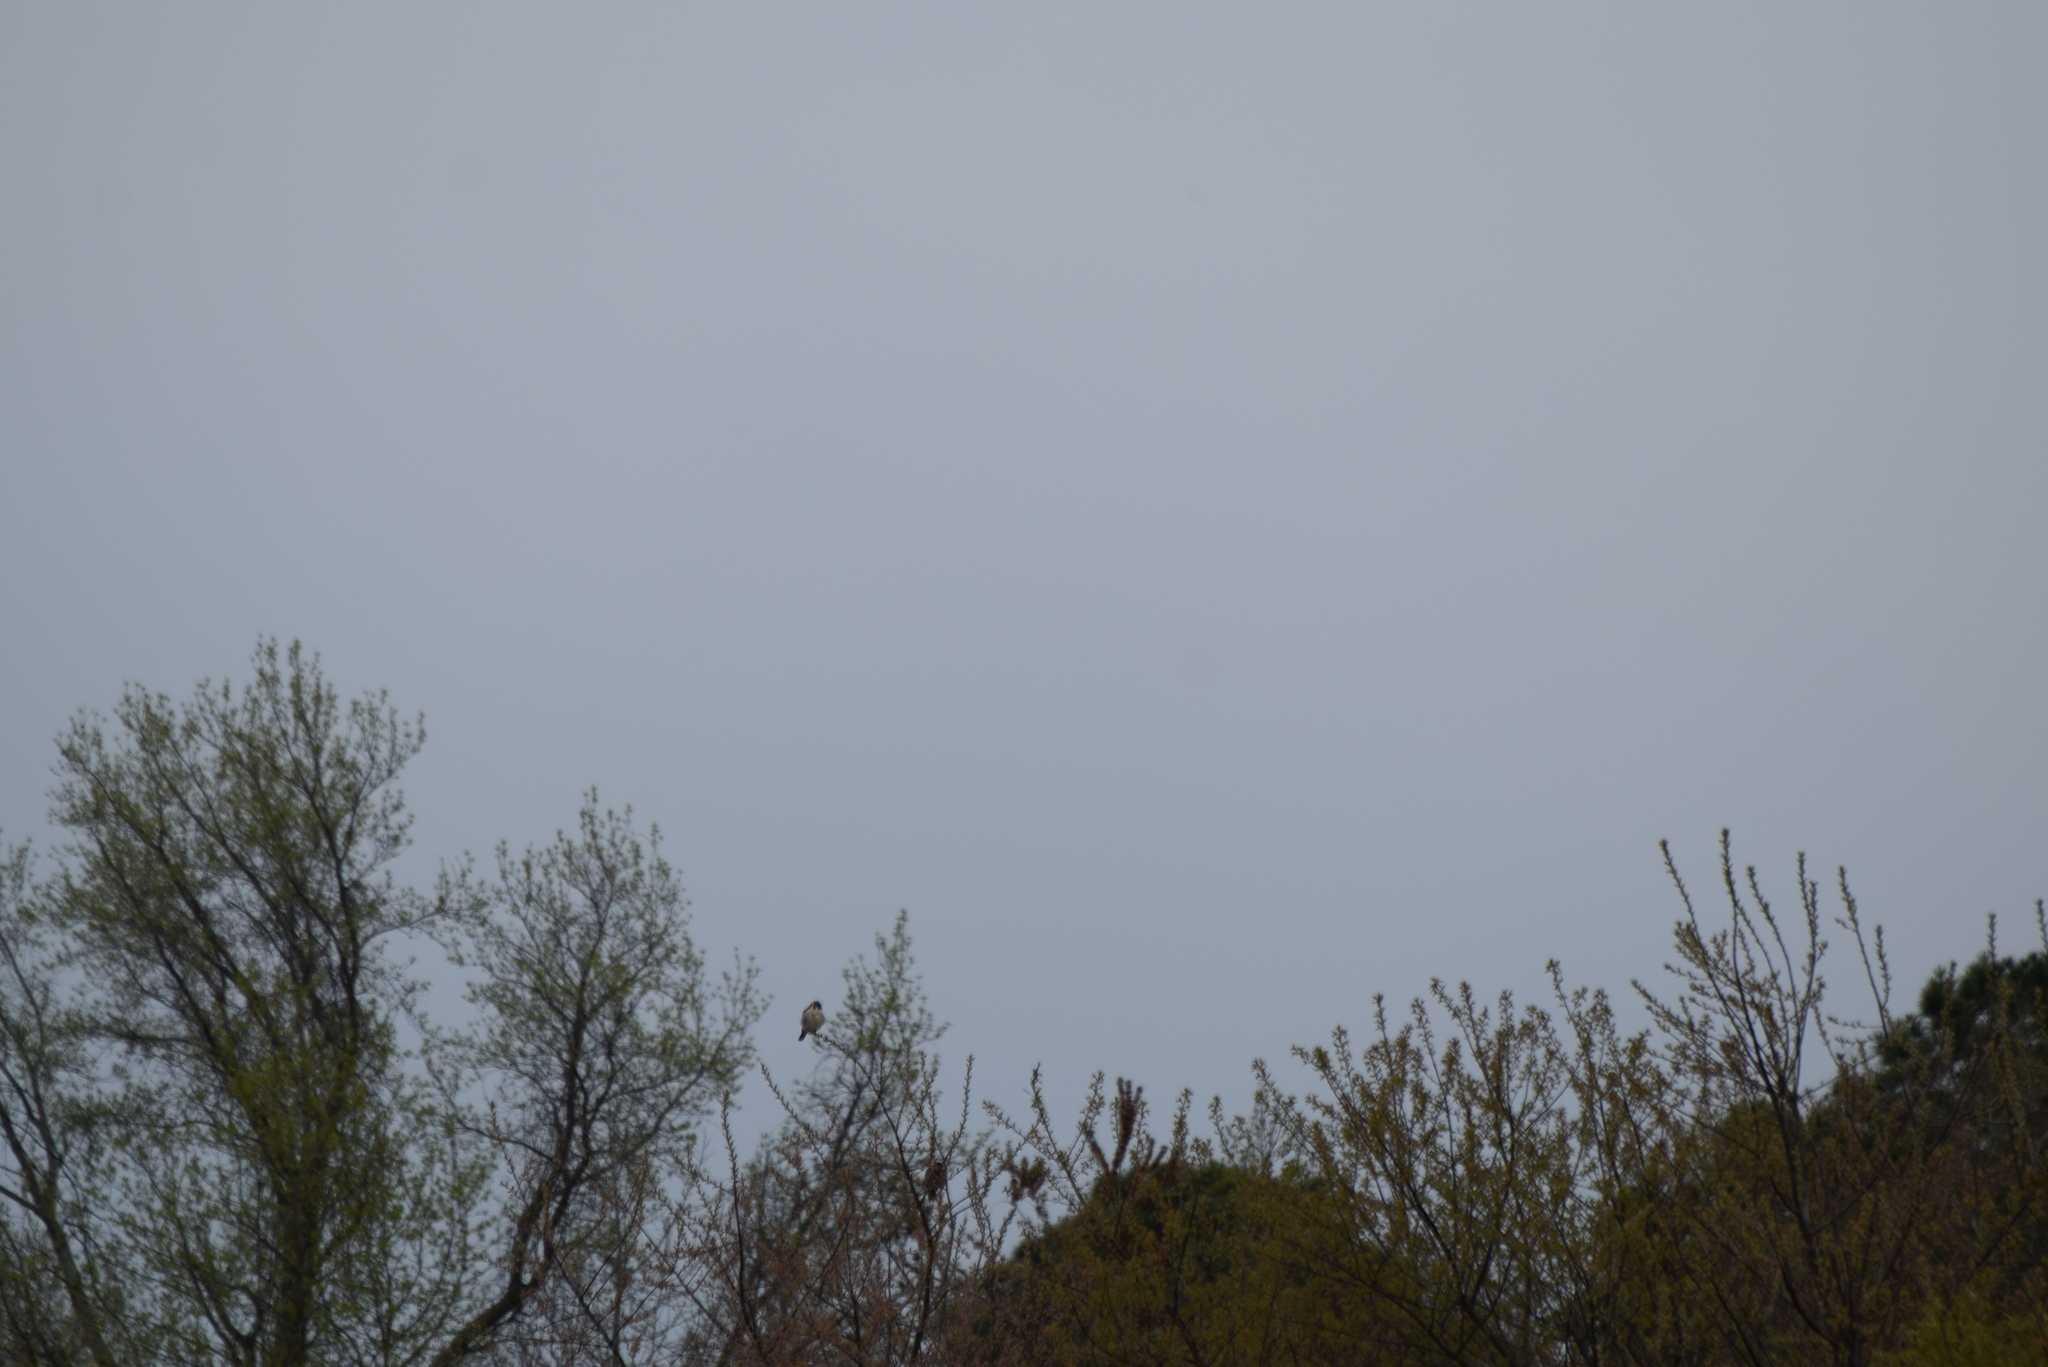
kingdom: Animalia
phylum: Chordata
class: Aves
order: Falconiformes
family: Falconidae
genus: Falco
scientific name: Falco sparverius
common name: American kestrel
